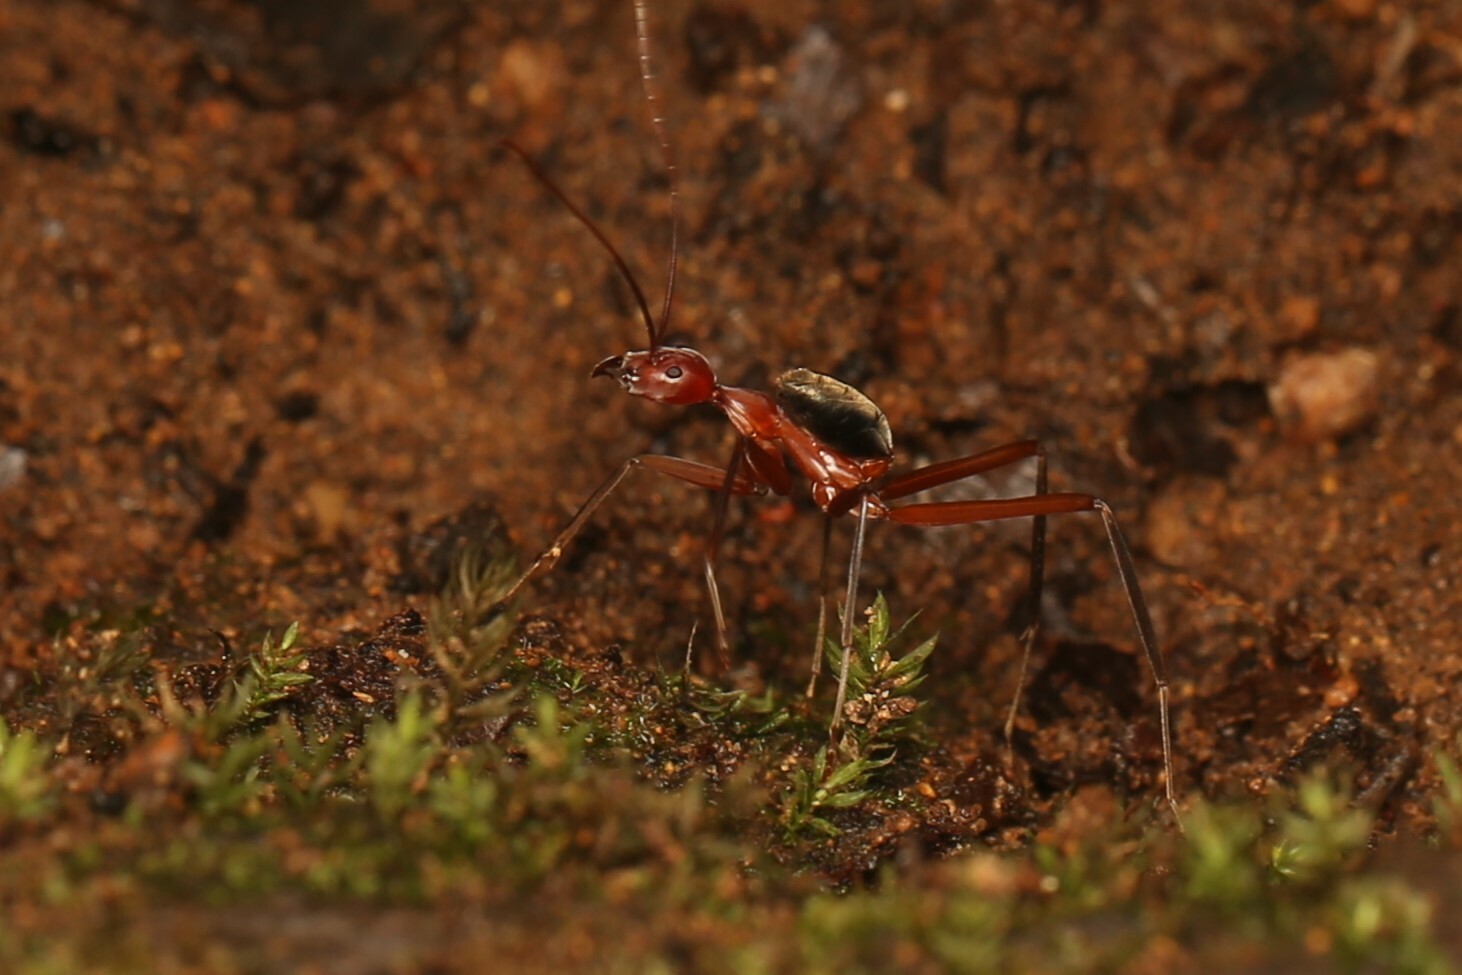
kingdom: Animalia
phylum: Arthropoda
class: Insecta
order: Hymenoptera
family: Formicidae
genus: Leptomyrmex
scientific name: Leptomyrmex tibialis
